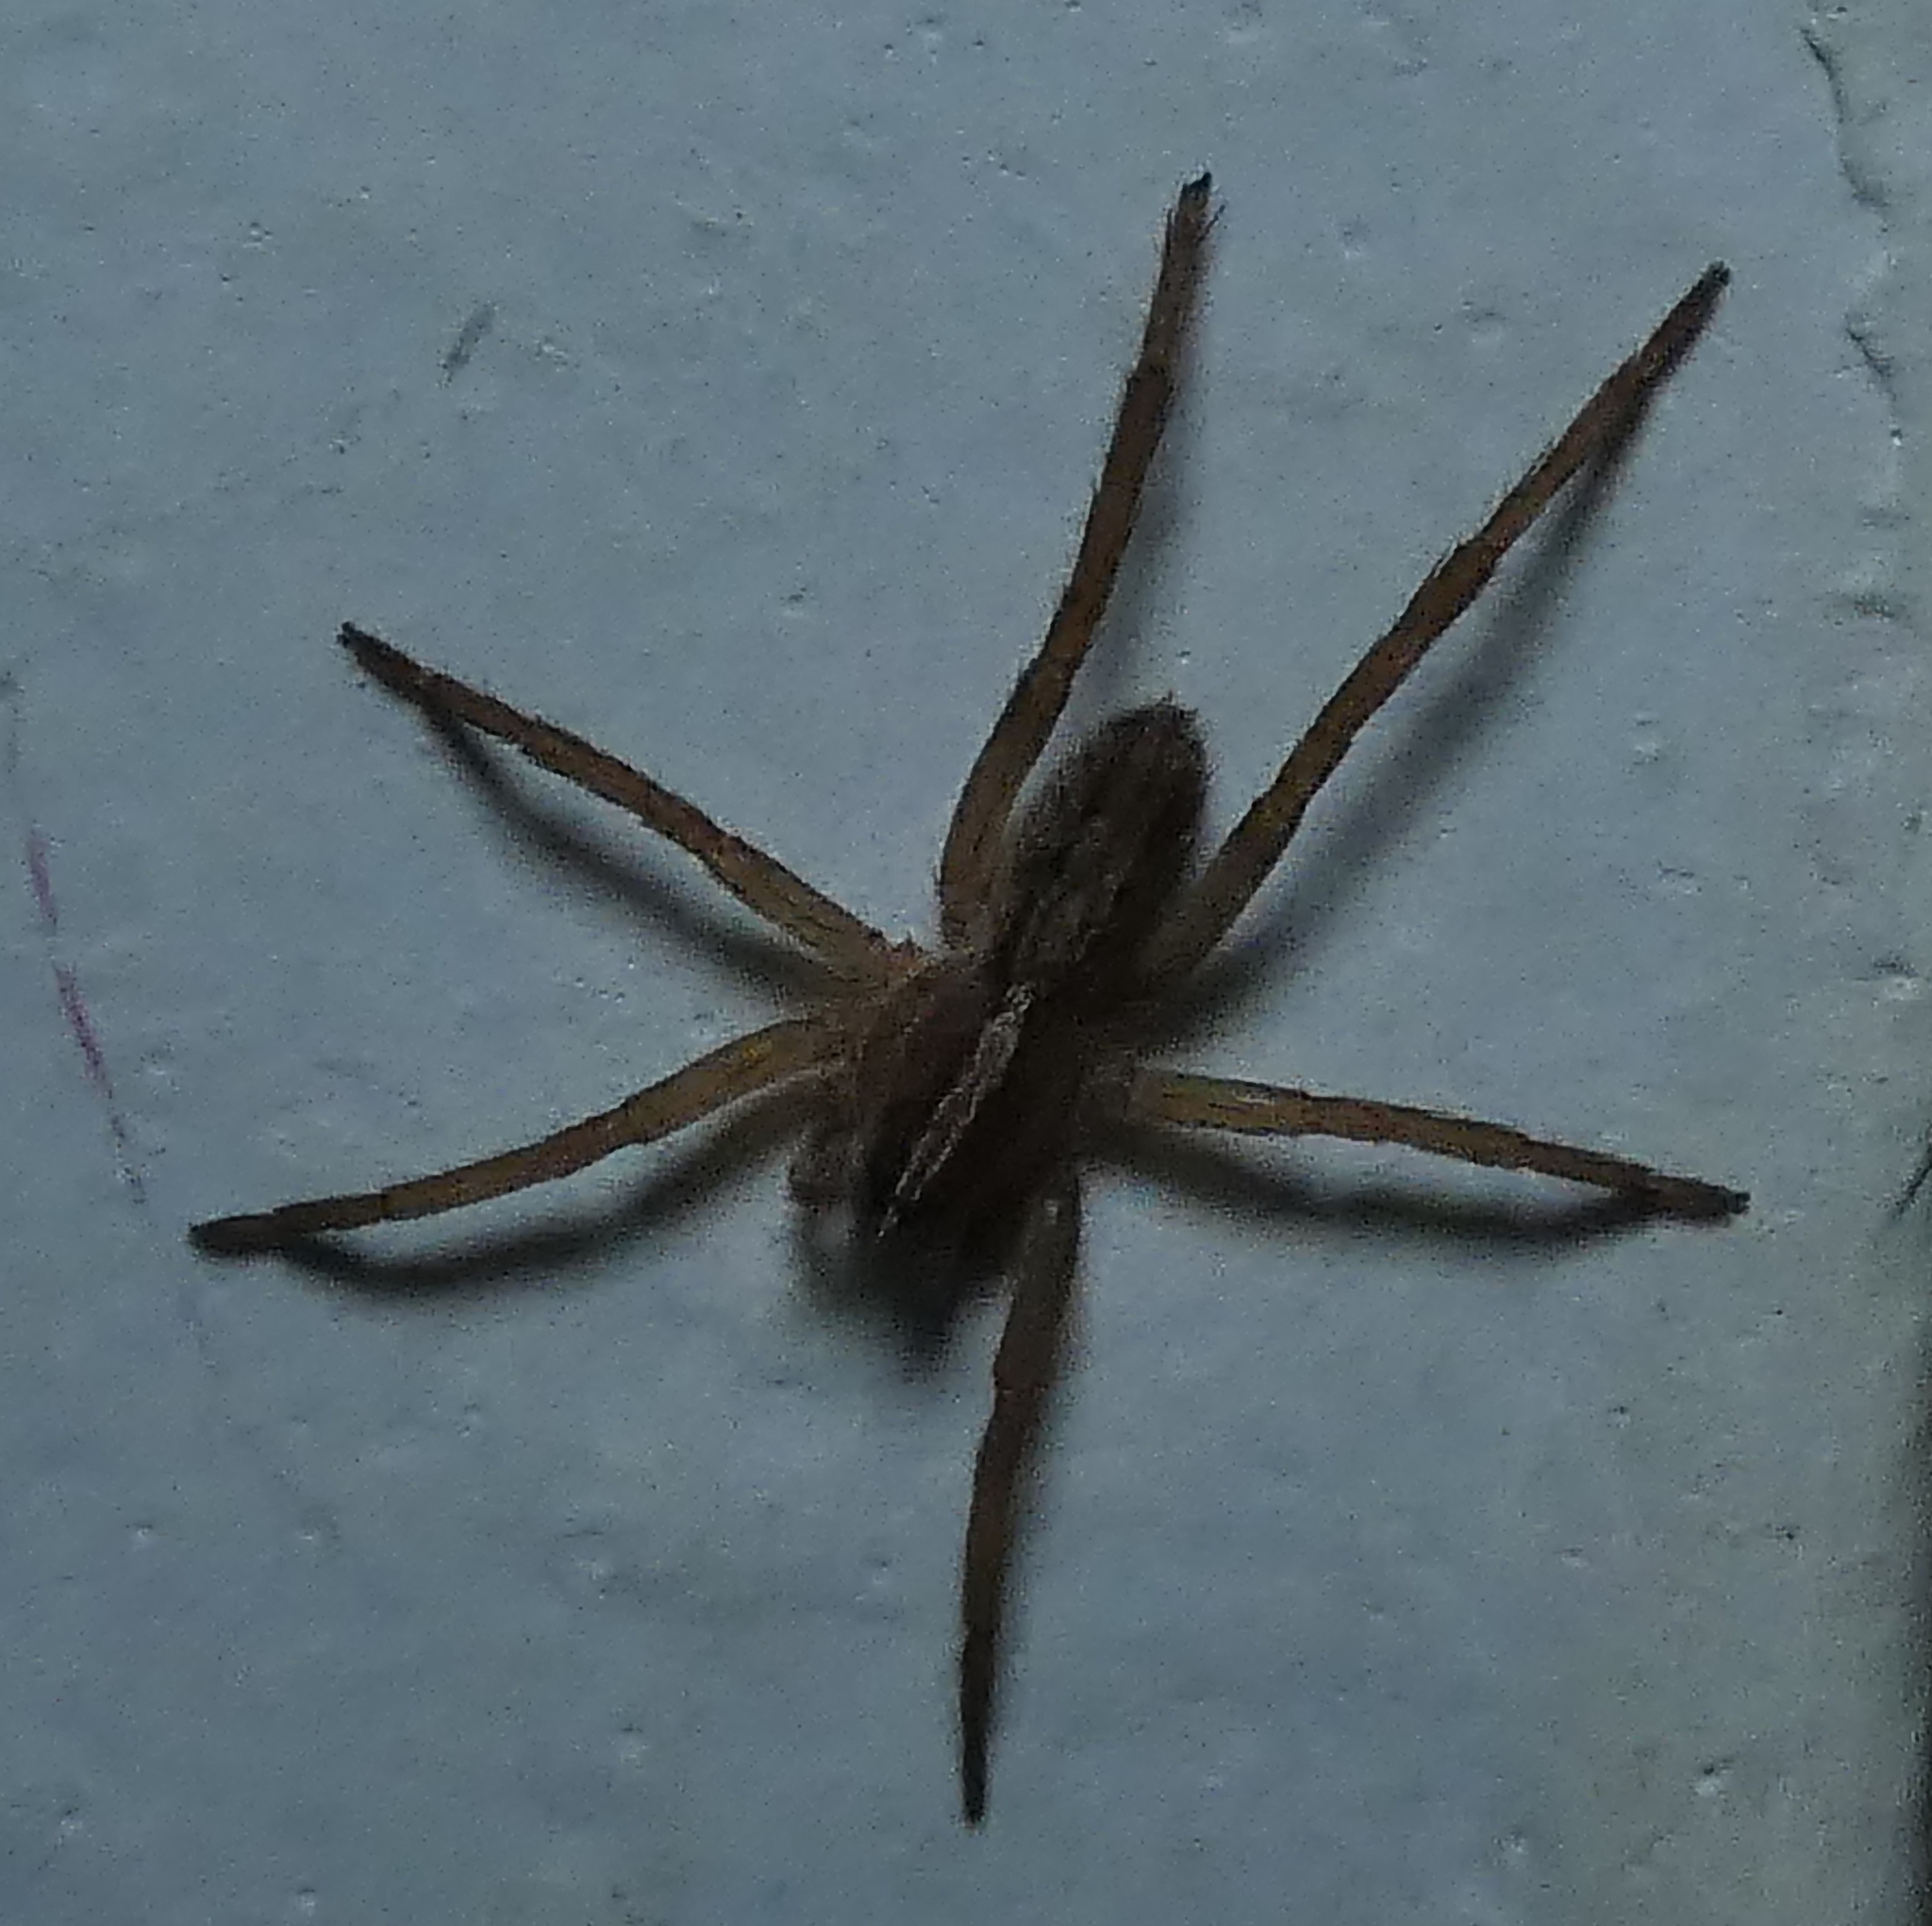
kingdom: Animalia
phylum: Arthropoda
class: Arachnida
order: Araneae
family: Ctenidae
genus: Parabatinga
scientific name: Parabatinga brevipes
